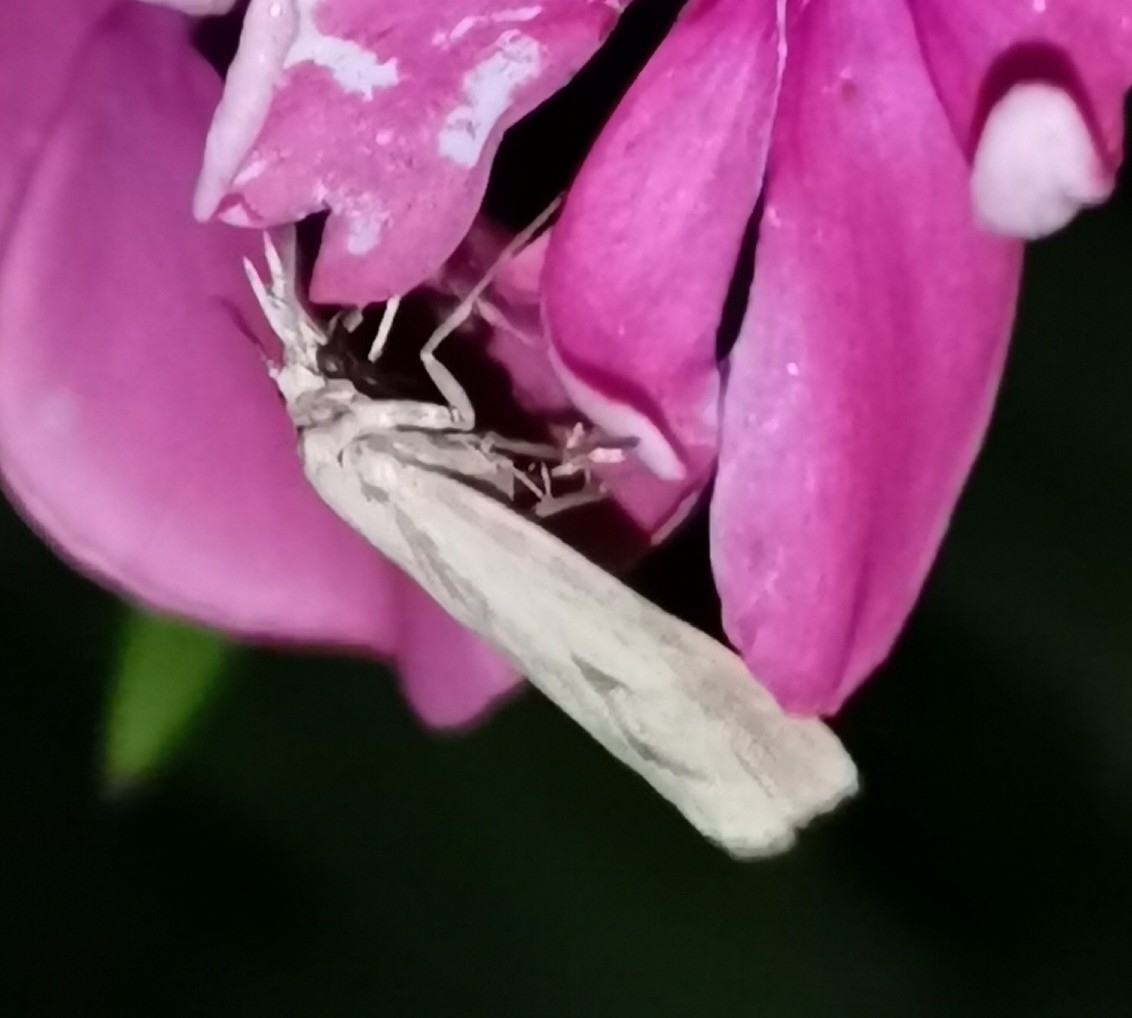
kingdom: Animalia
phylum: Arthropoda
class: Insecta
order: Lepidoptera
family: Crambidae
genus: Agriphila
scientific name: Agriphila inquinatella
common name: Barred grass-veneer
